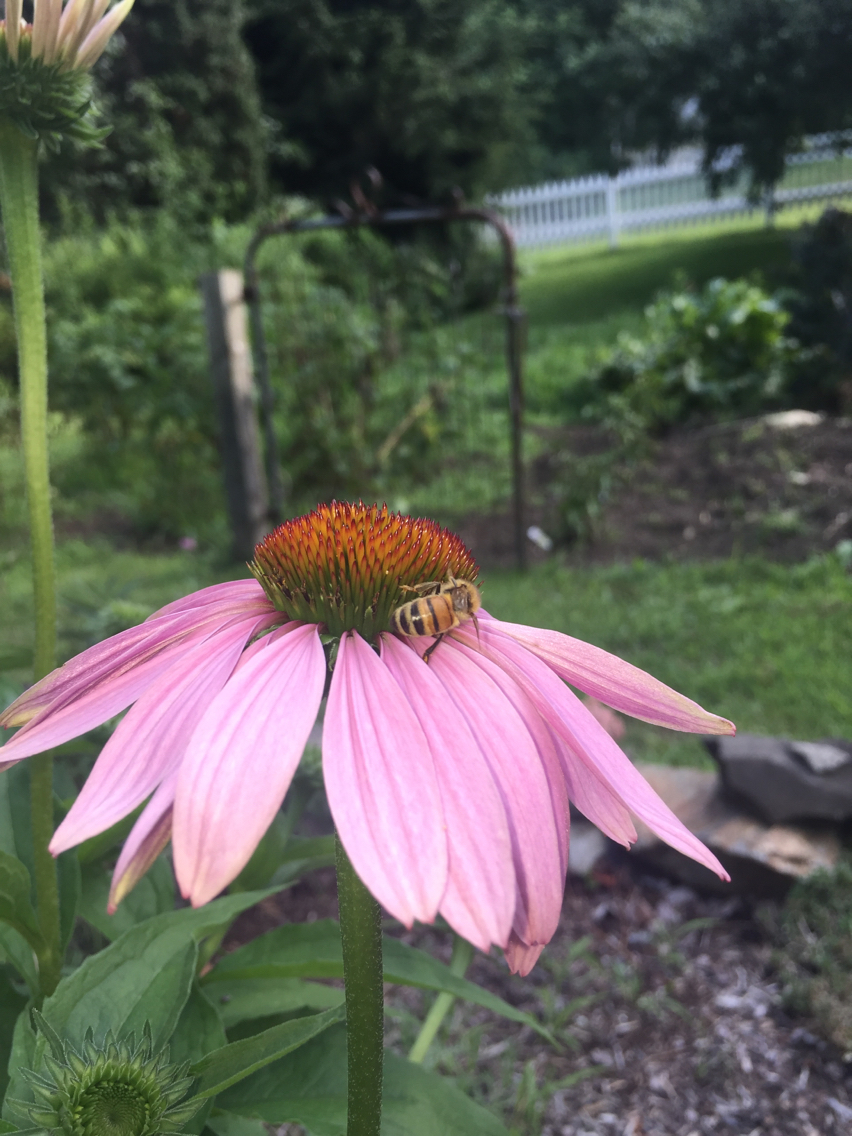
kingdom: Animalia
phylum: Arthropoda
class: Insecta
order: Hymenoptera
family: Apidae
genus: Apis
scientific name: Apis mellifera
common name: Honey bee
